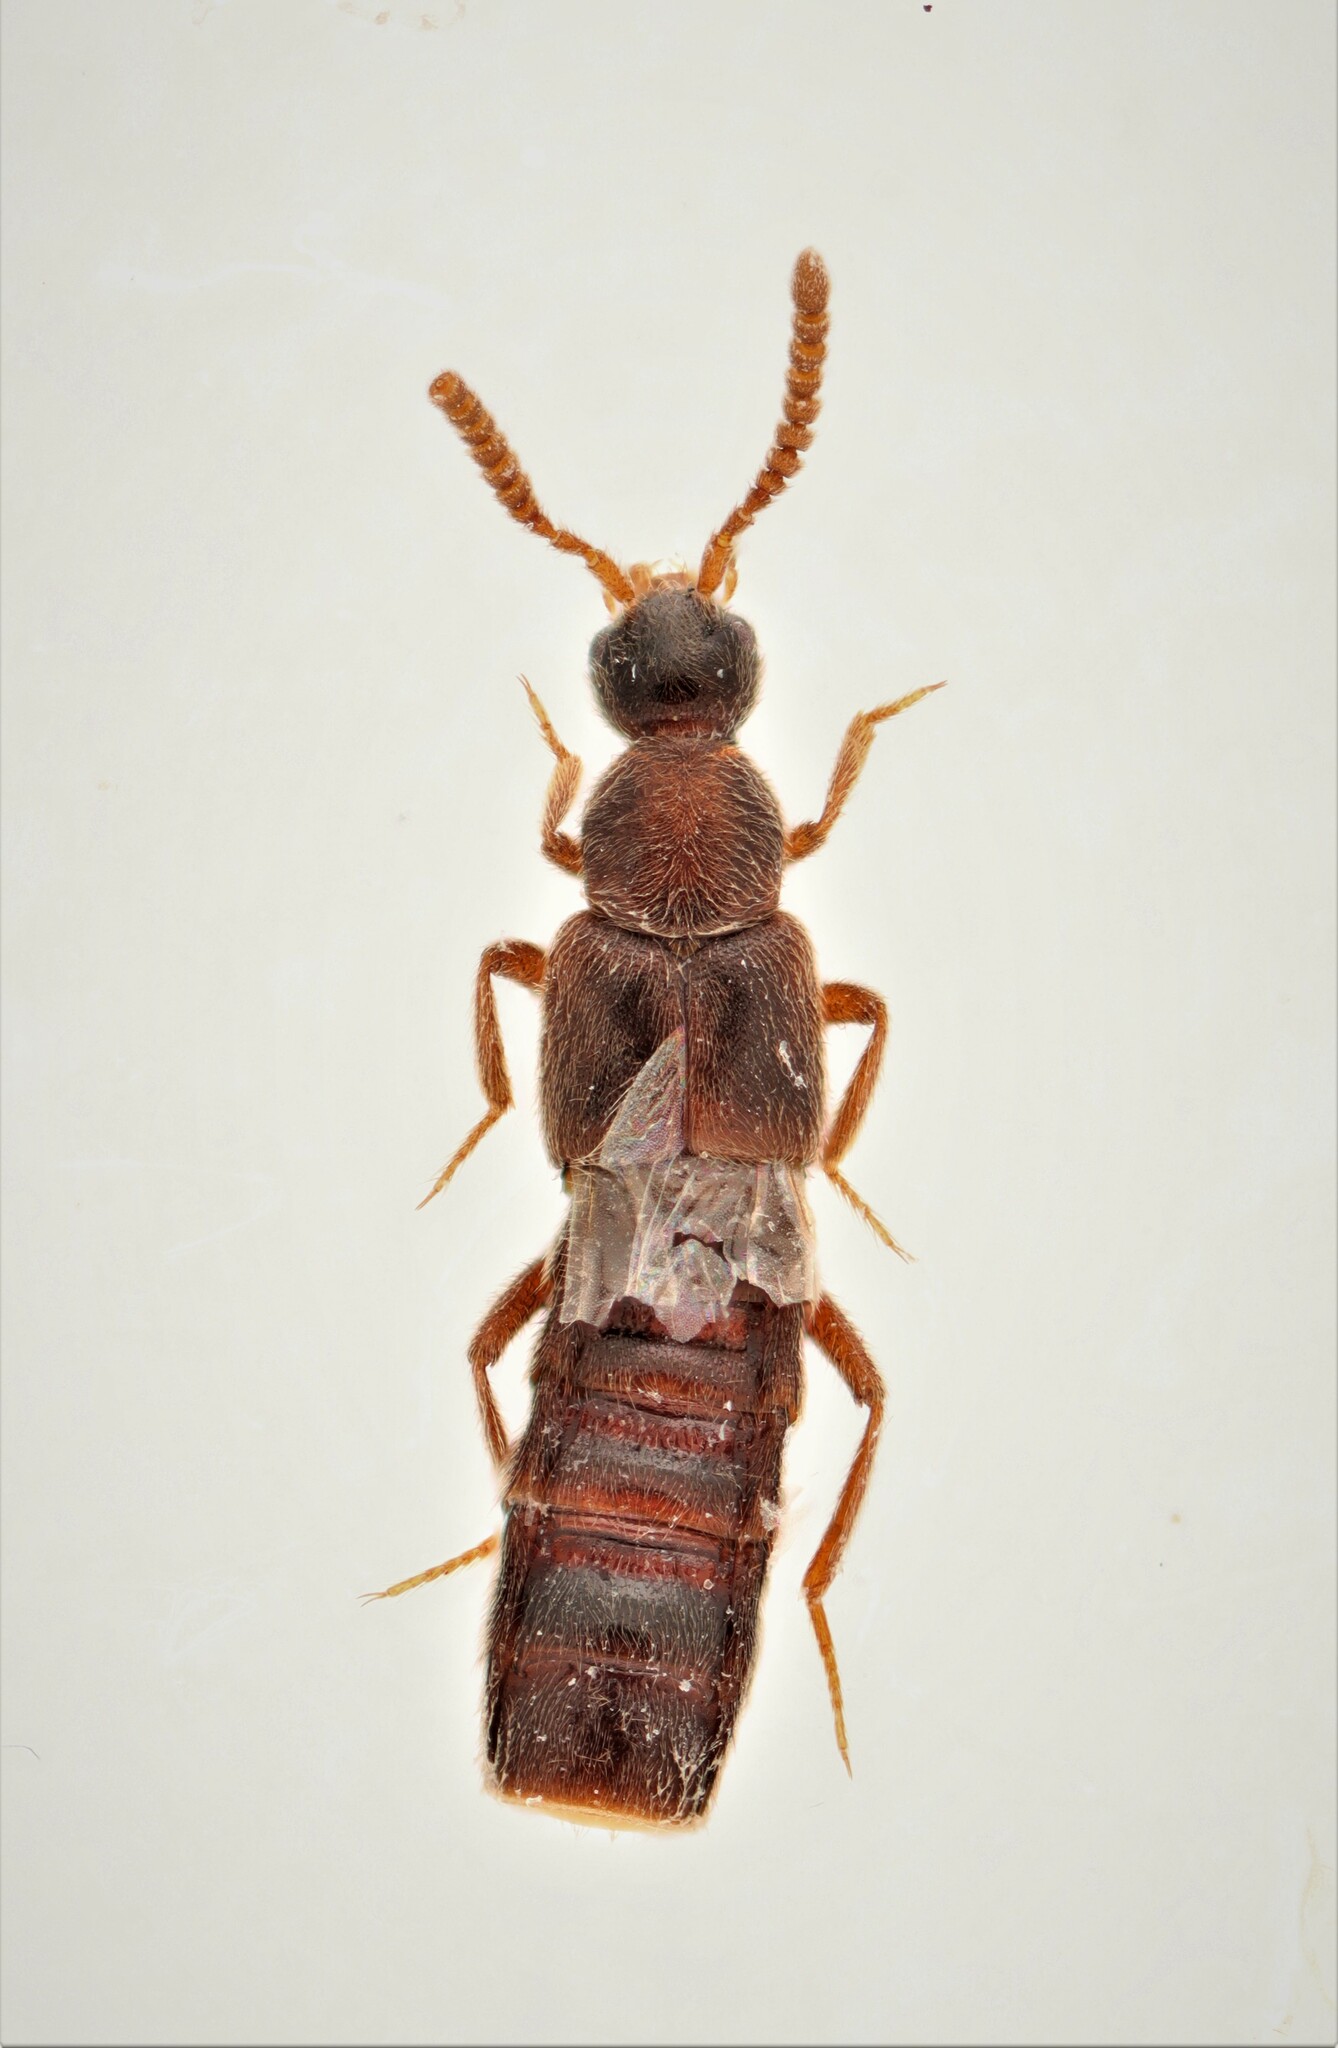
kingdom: Animalia
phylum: Arthropoda
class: Insecta
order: Coleoptera
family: Staphylinidae
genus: Calodera
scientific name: Calodera parviceps
